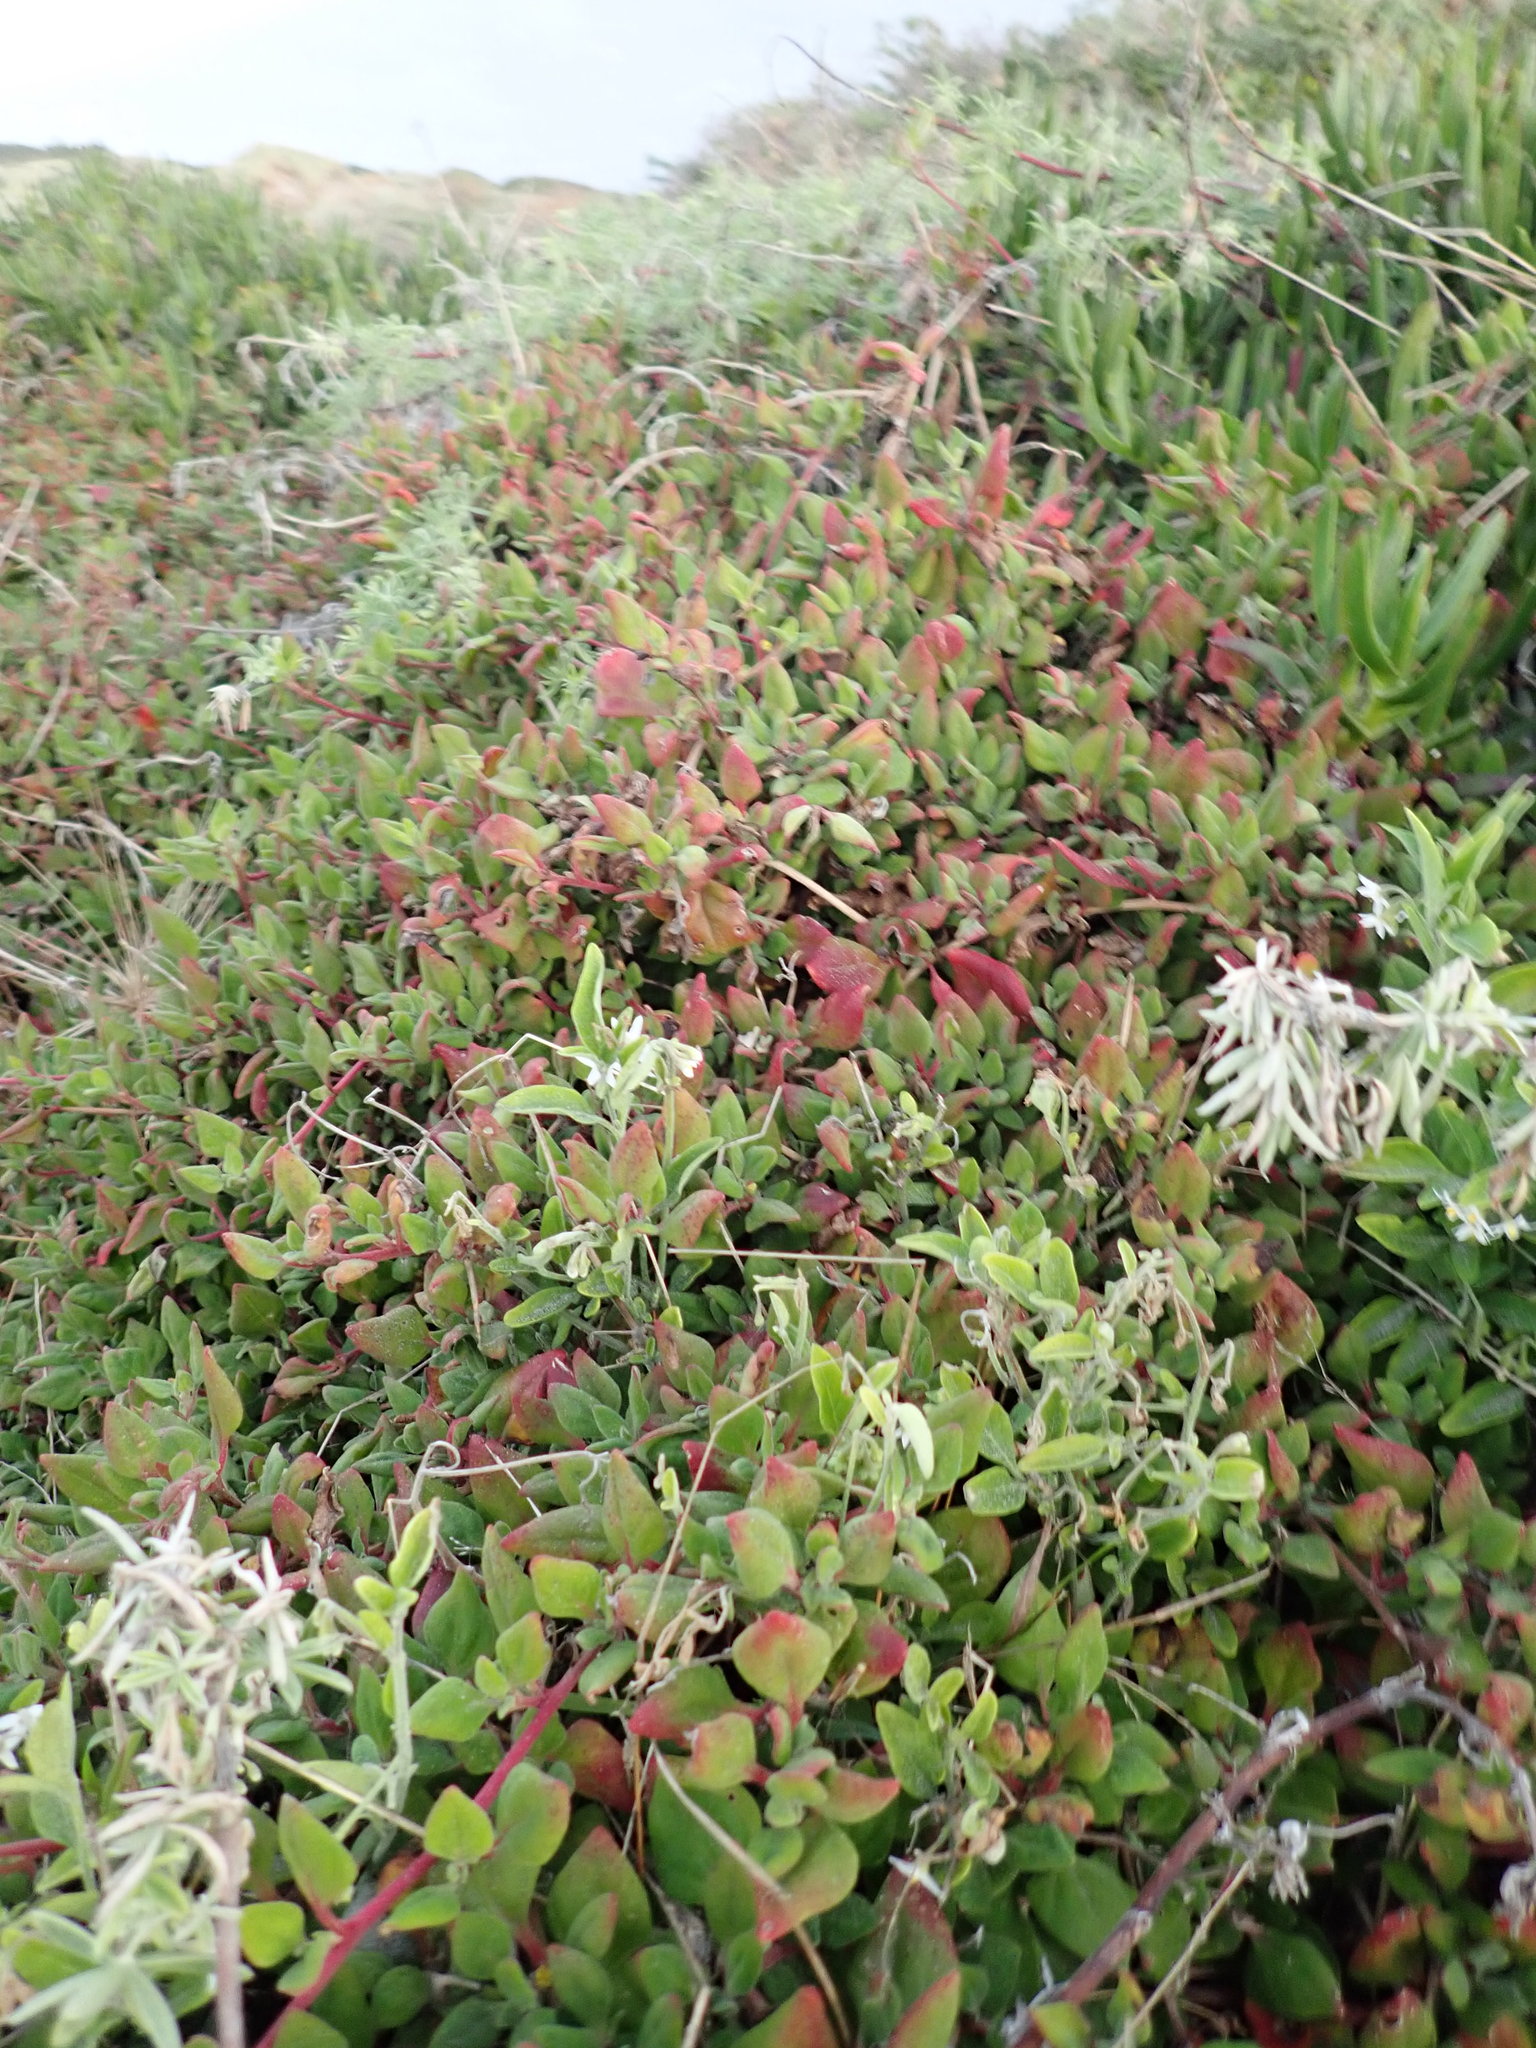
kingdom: Plantae
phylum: Tracheophyta
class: Magnoliopsida
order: Caryophyllales
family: Aizoaceae
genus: Tetragonia
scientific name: Tetragonia implexicoma
